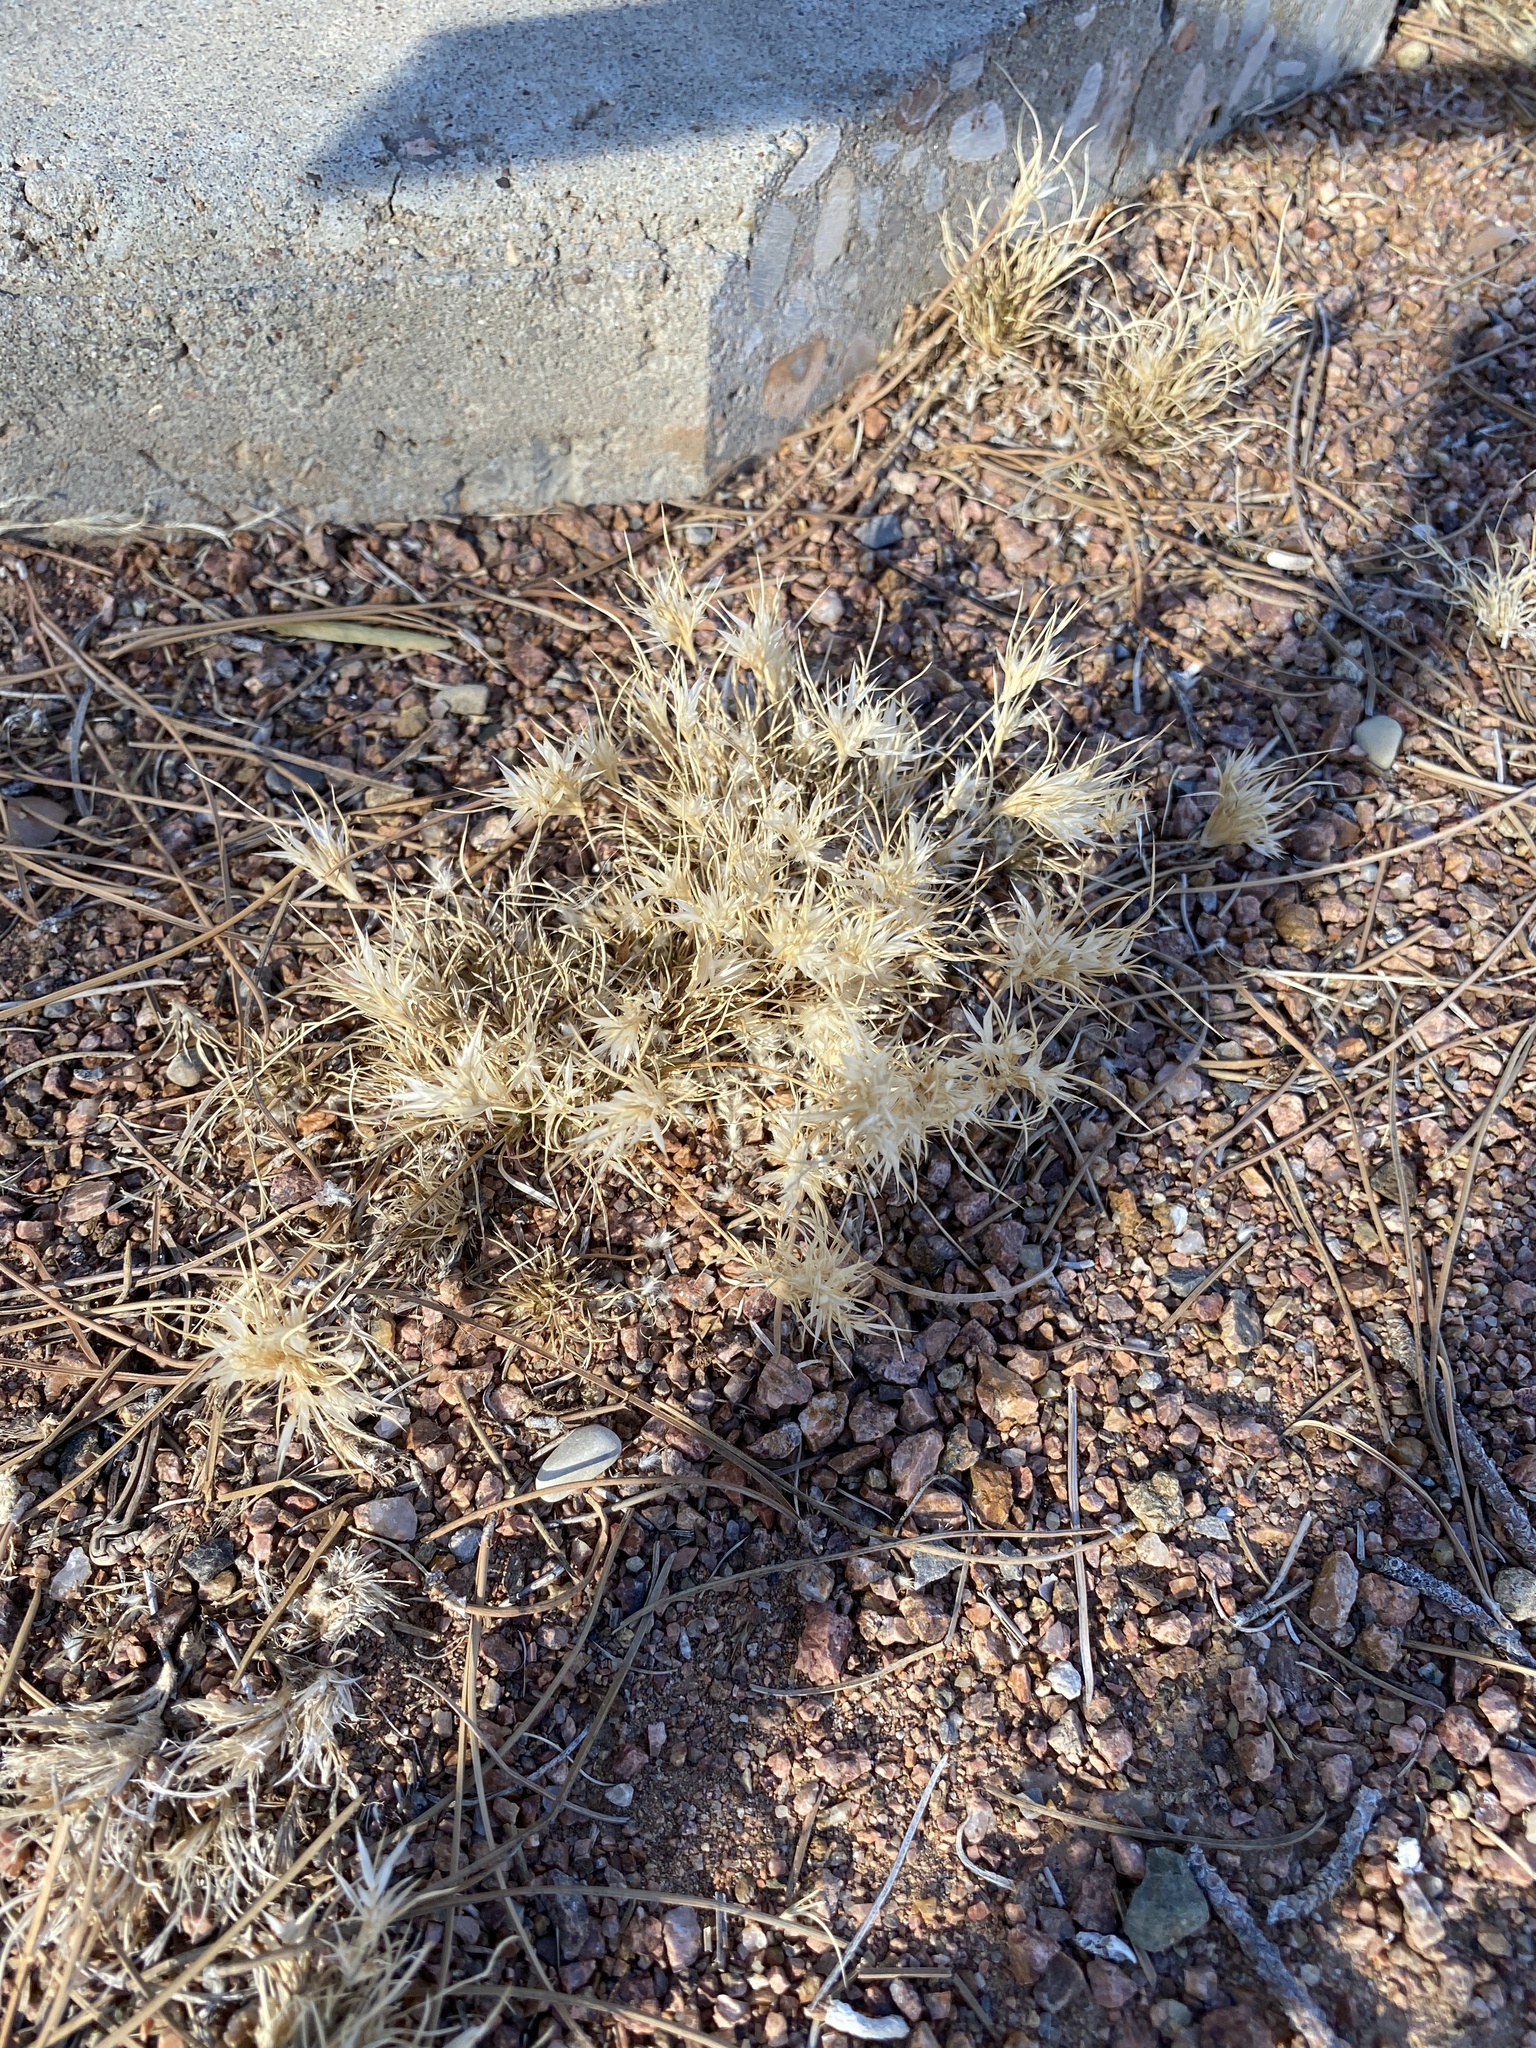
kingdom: Plantae
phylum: Tracheophyta
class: Liliopsida
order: Poales
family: Poaceae
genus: Dasyochloa
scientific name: Dasyochloa pulchella
